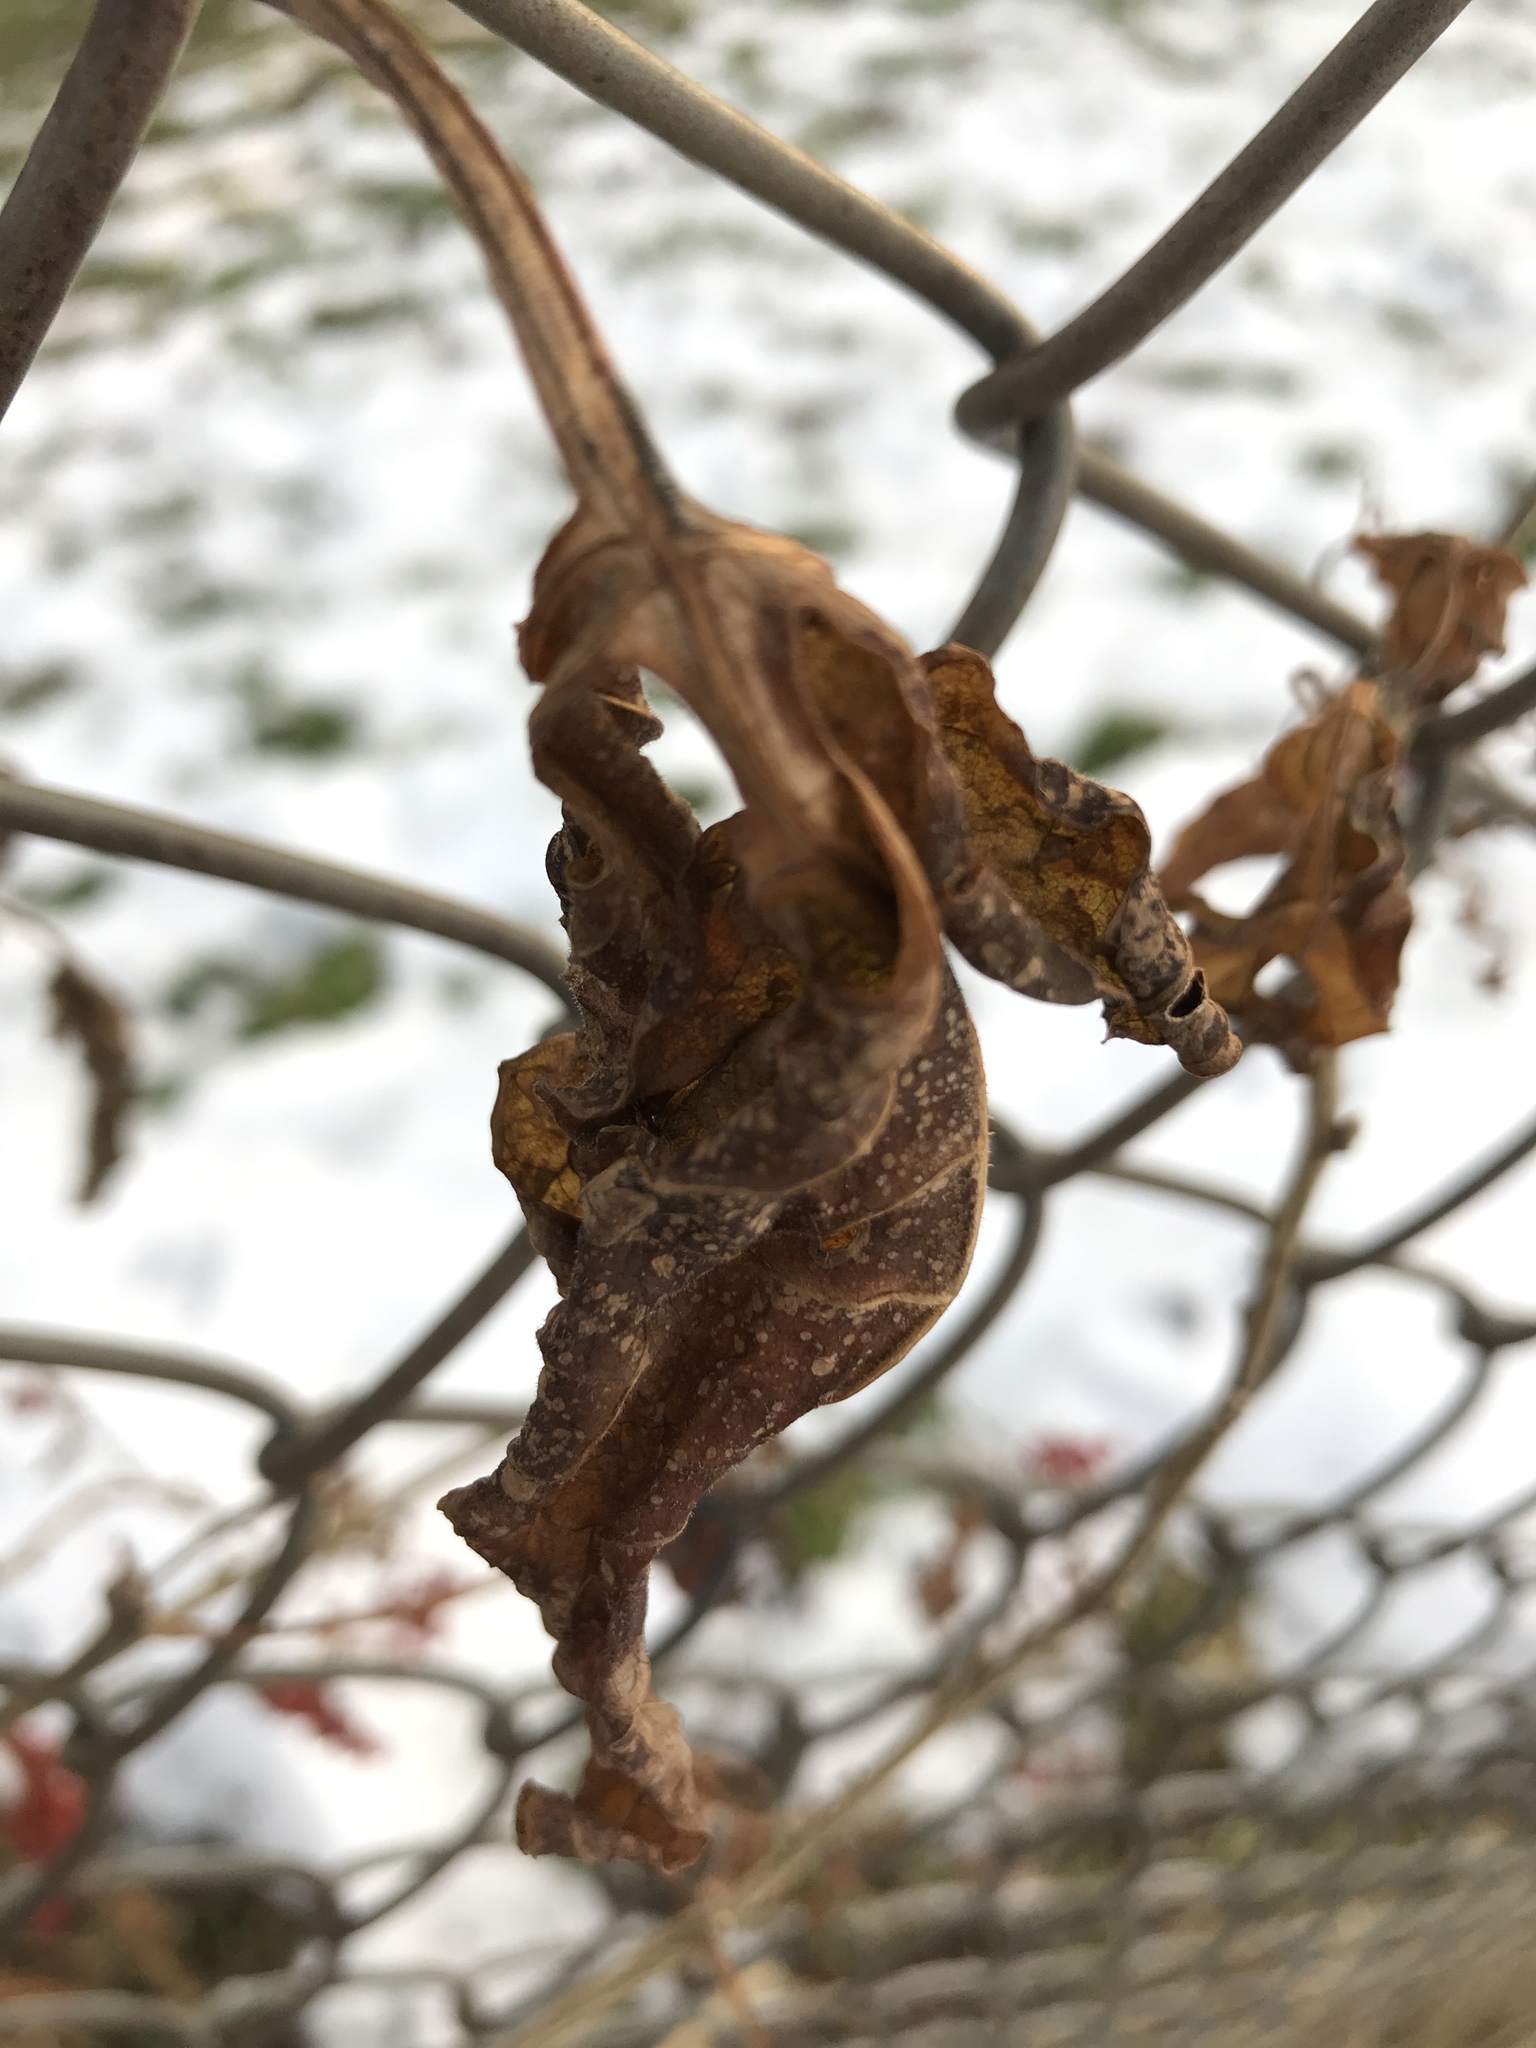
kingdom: Plantae
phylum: Tracheophyta
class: Magnoliopsida
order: Solanales
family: Solanaceae
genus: Solanum
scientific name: Solanum dulcamara
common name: Climbing nightshade
